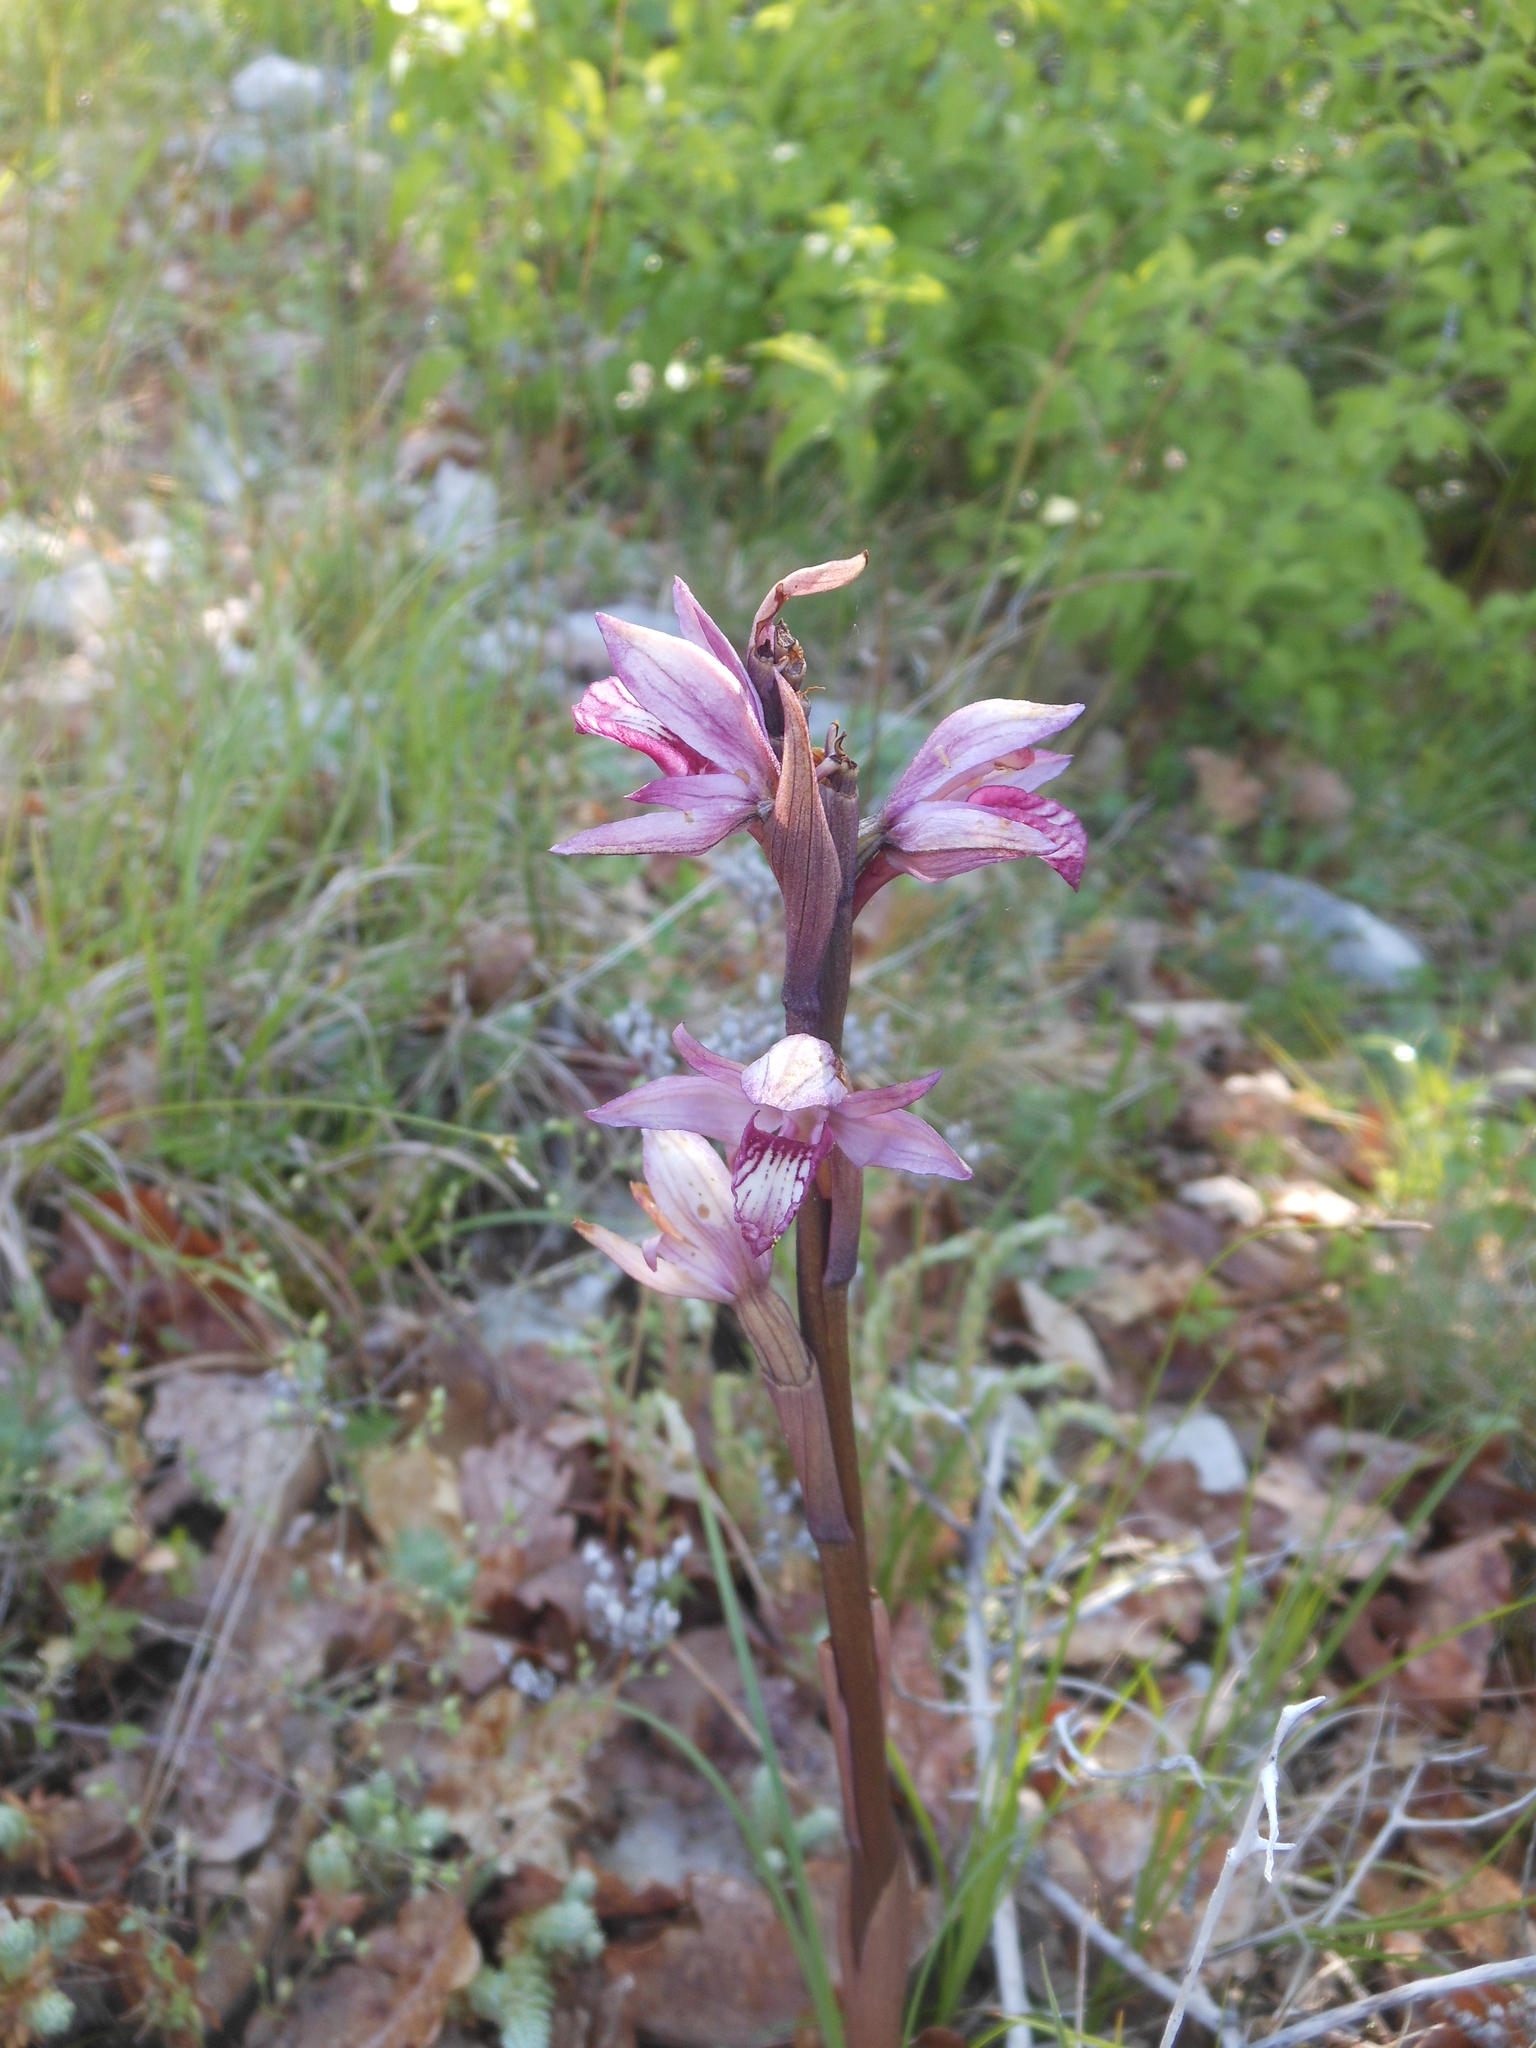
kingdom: Plantae
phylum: Tracheophyta
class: Liliopsida
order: Asparagales
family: Orchidaceae
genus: Limodorum
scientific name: Limodorum abortivum
